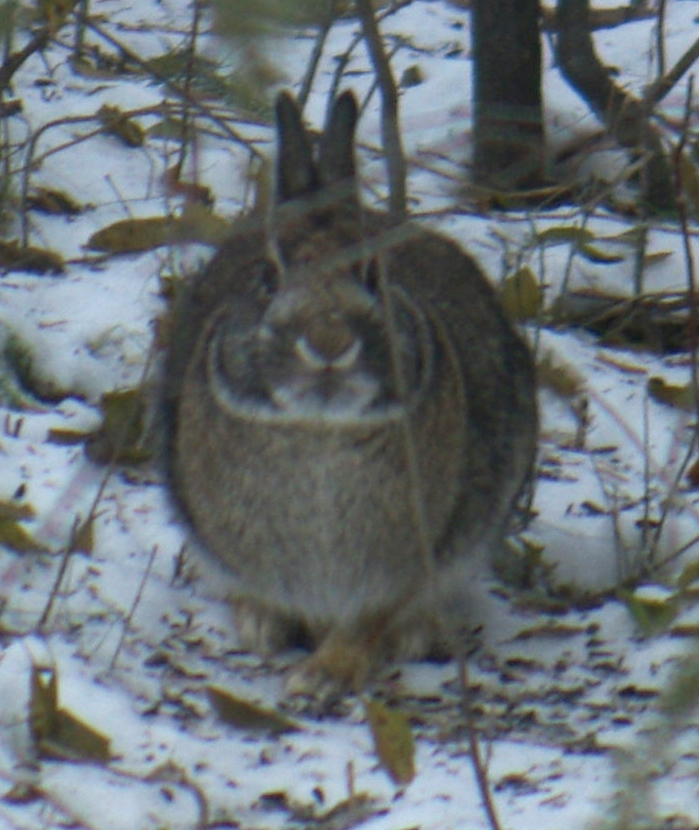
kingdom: Animalia
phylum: Chordata
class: Mammalia
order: Lagomorpha
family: Leporidae
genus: Sylvilagus
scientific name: Sylvilagus floridanus
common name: Eastern cottontail
